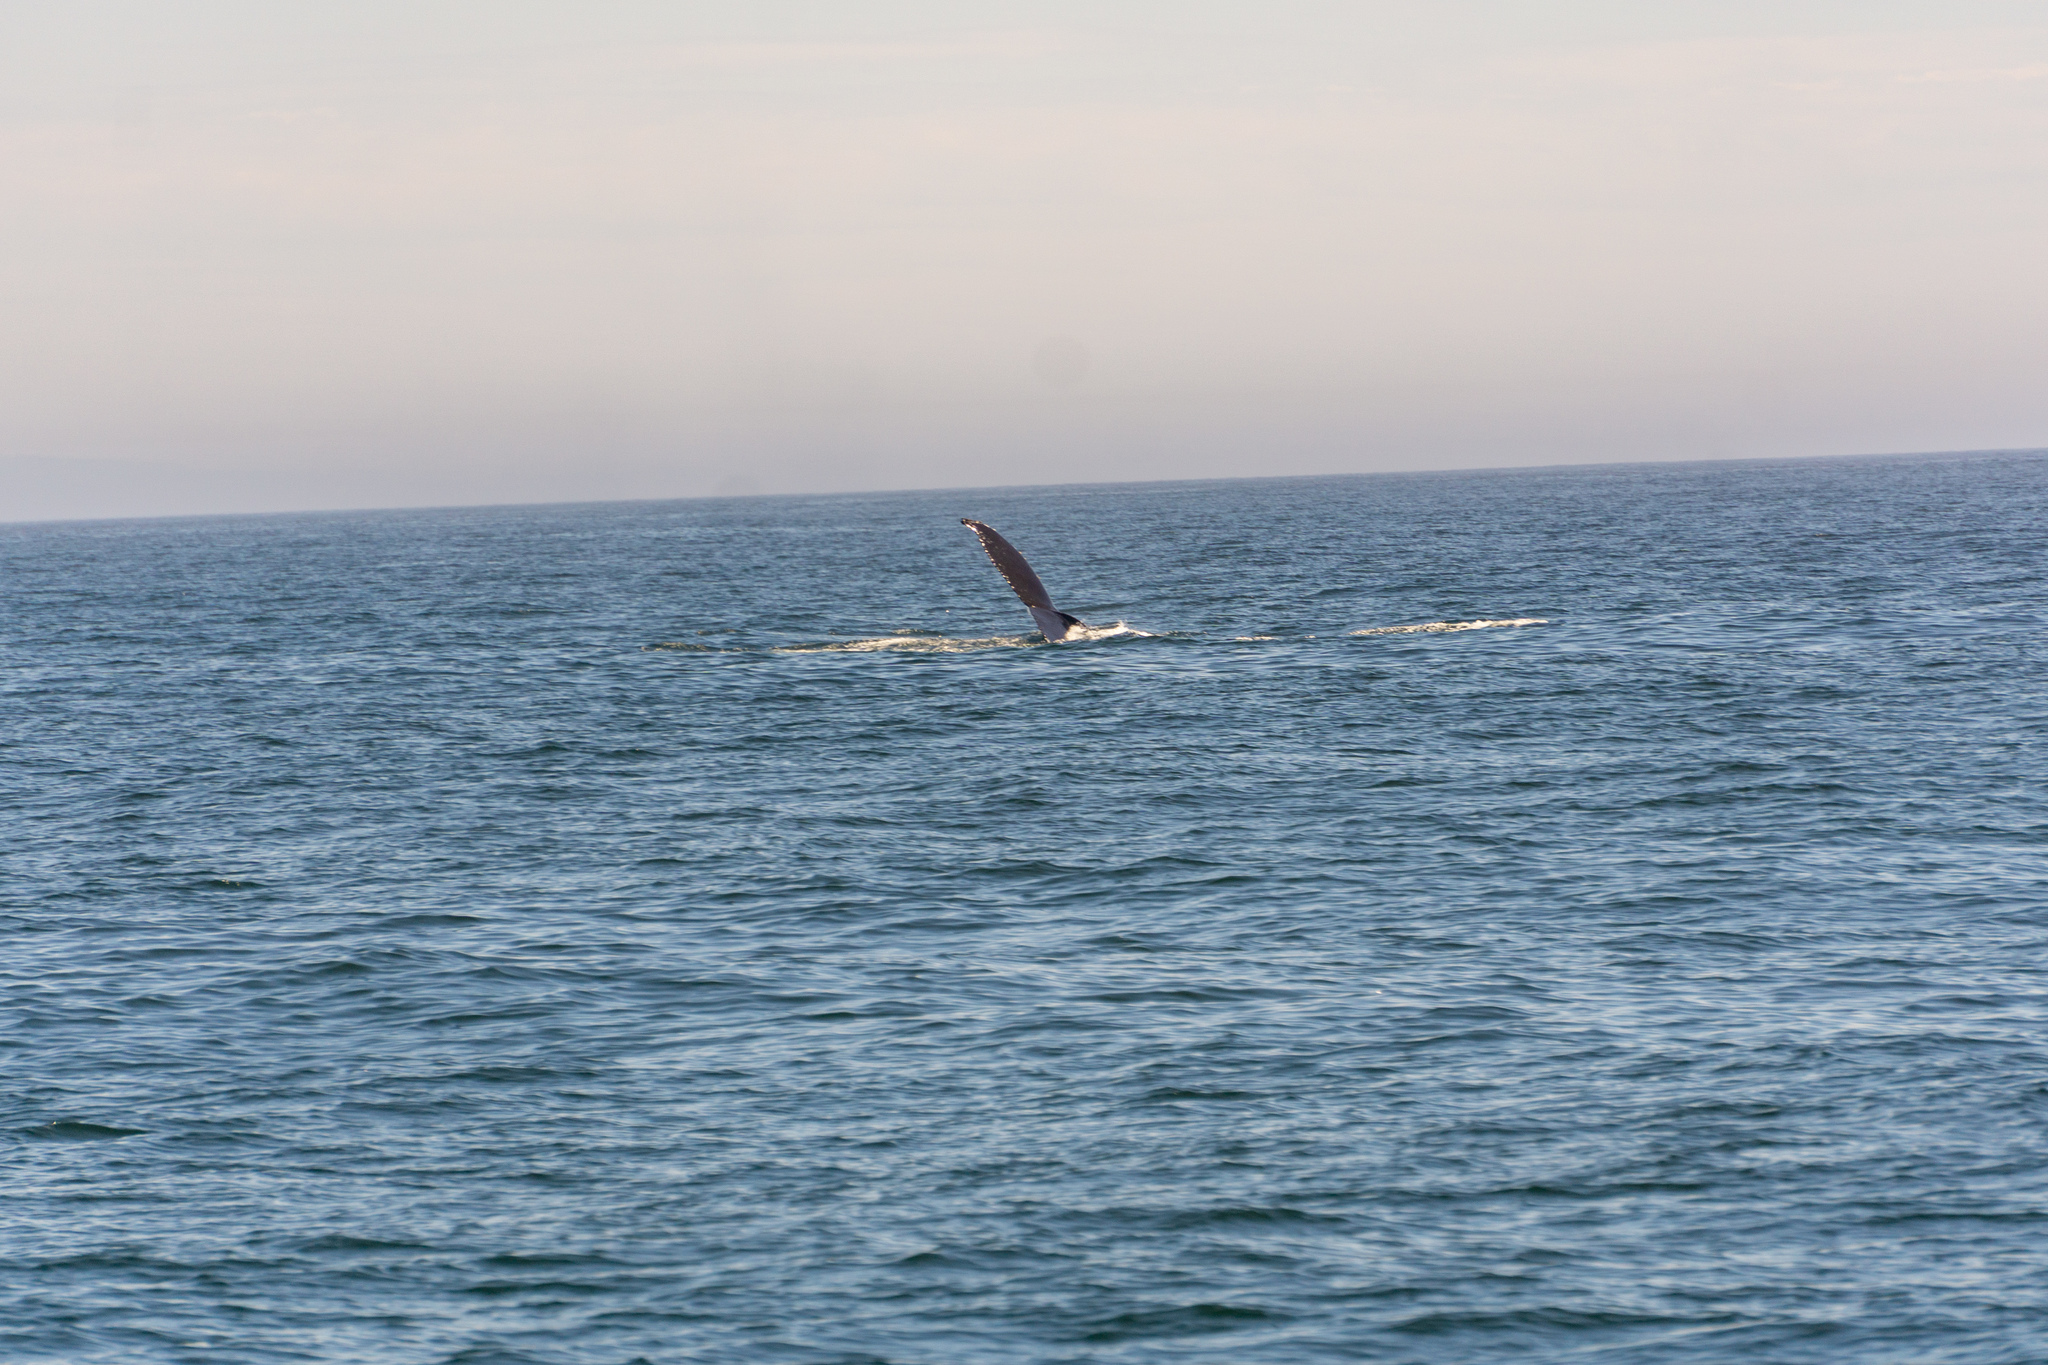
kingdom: Animalia
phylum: Chordata
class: Mammalia
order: Cetacea
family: Balaenopteridae
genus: Megaptera
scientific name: Megaptera novaeangliae
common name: Humpback whale
